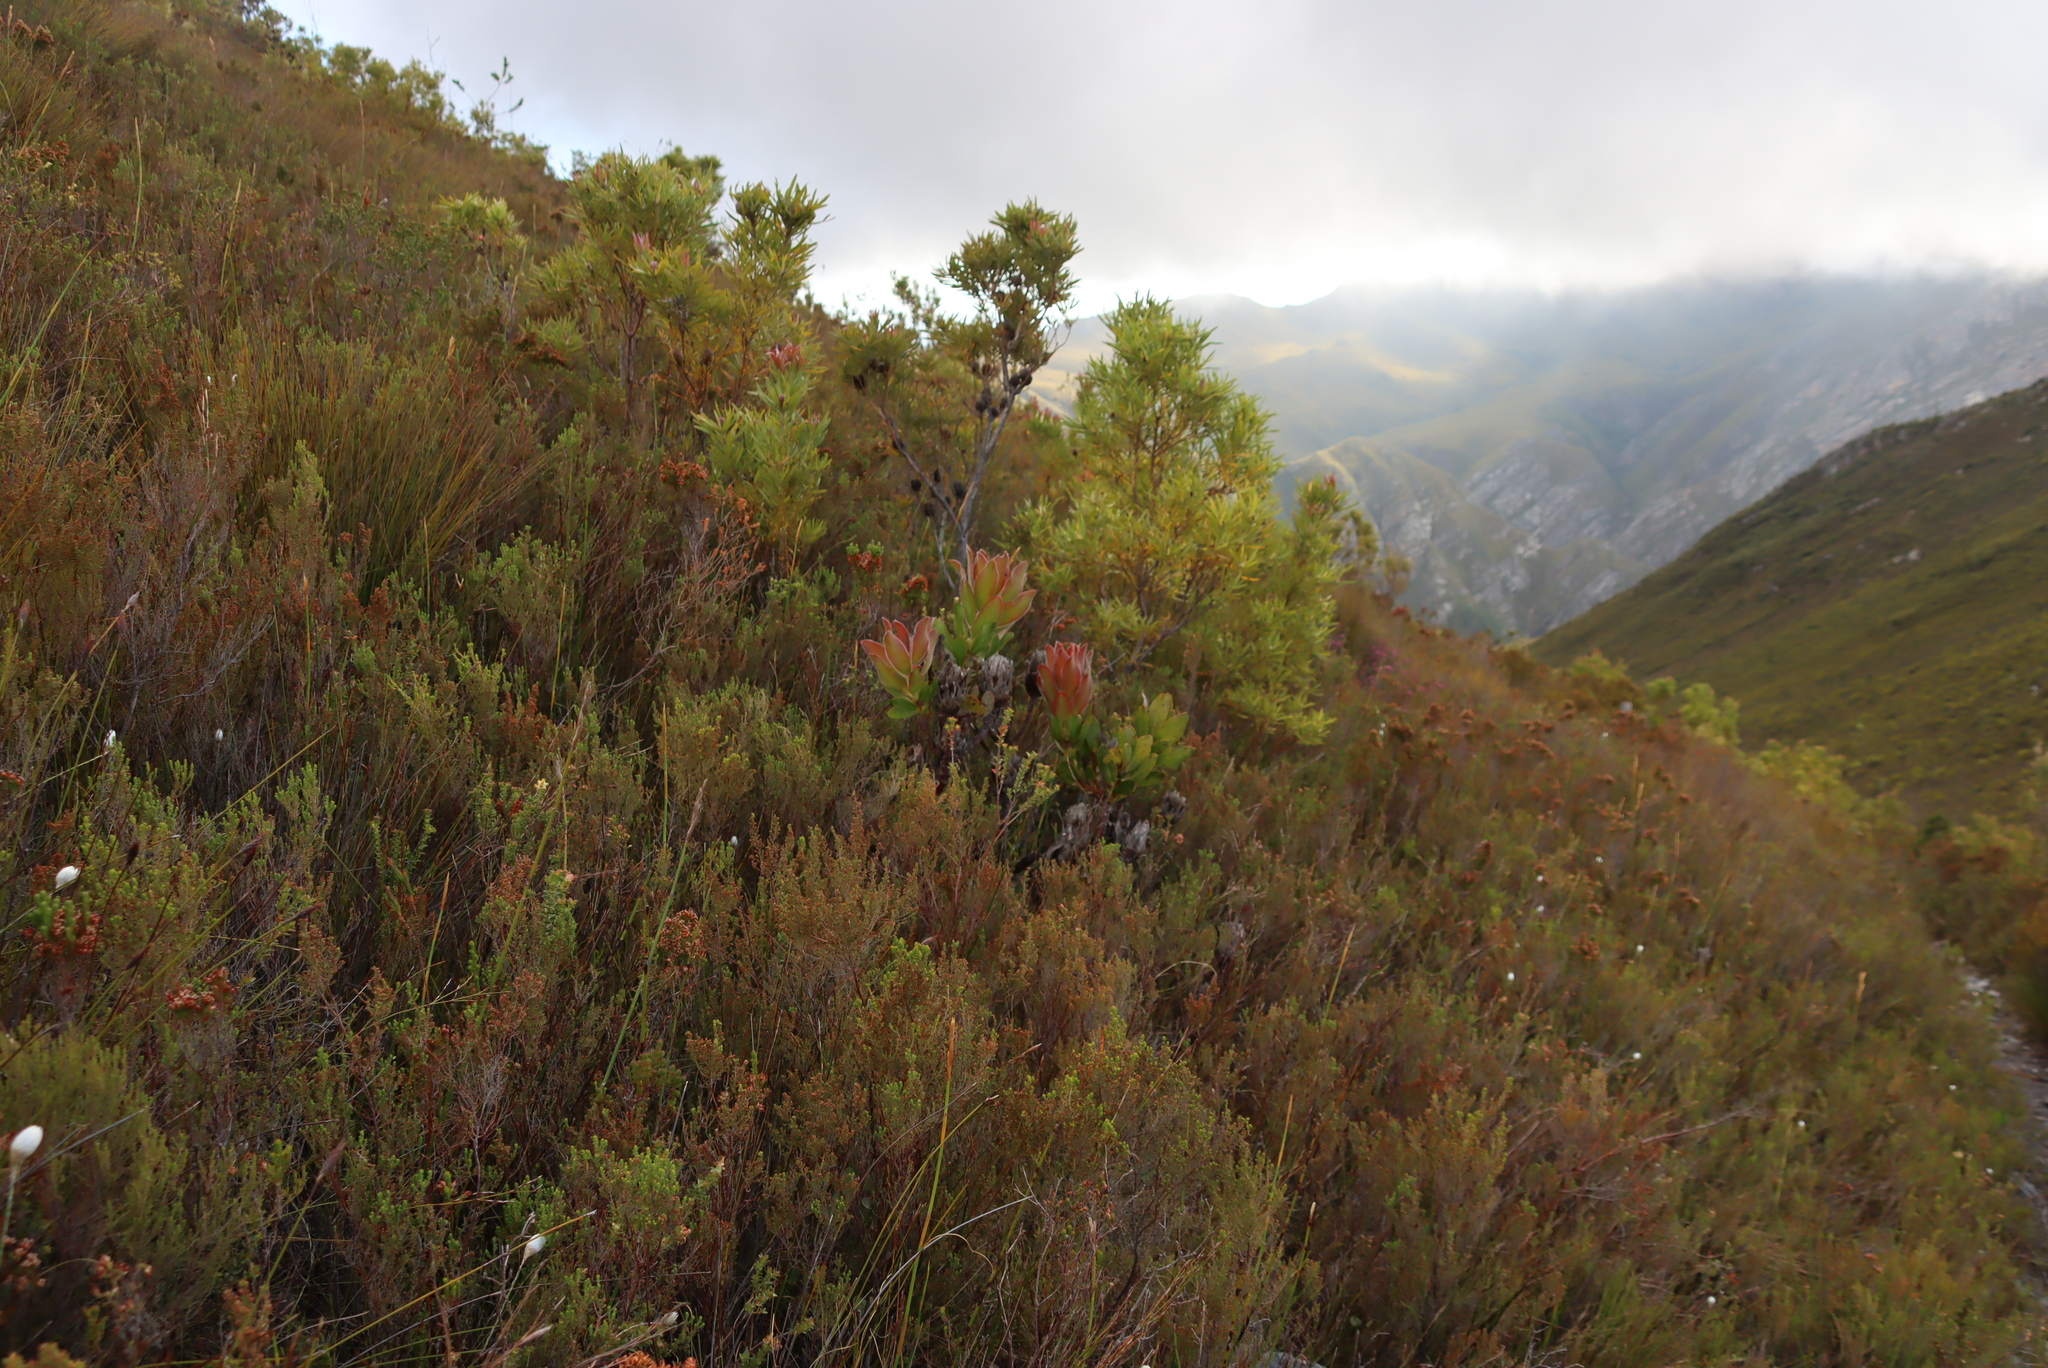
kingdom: Plantae
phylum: Tracheophyta
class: Magnoliopsida
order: Proteales
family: Proteaceae
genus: Protea
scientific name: Protea speciosa
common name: Brown-beard sugarbush
